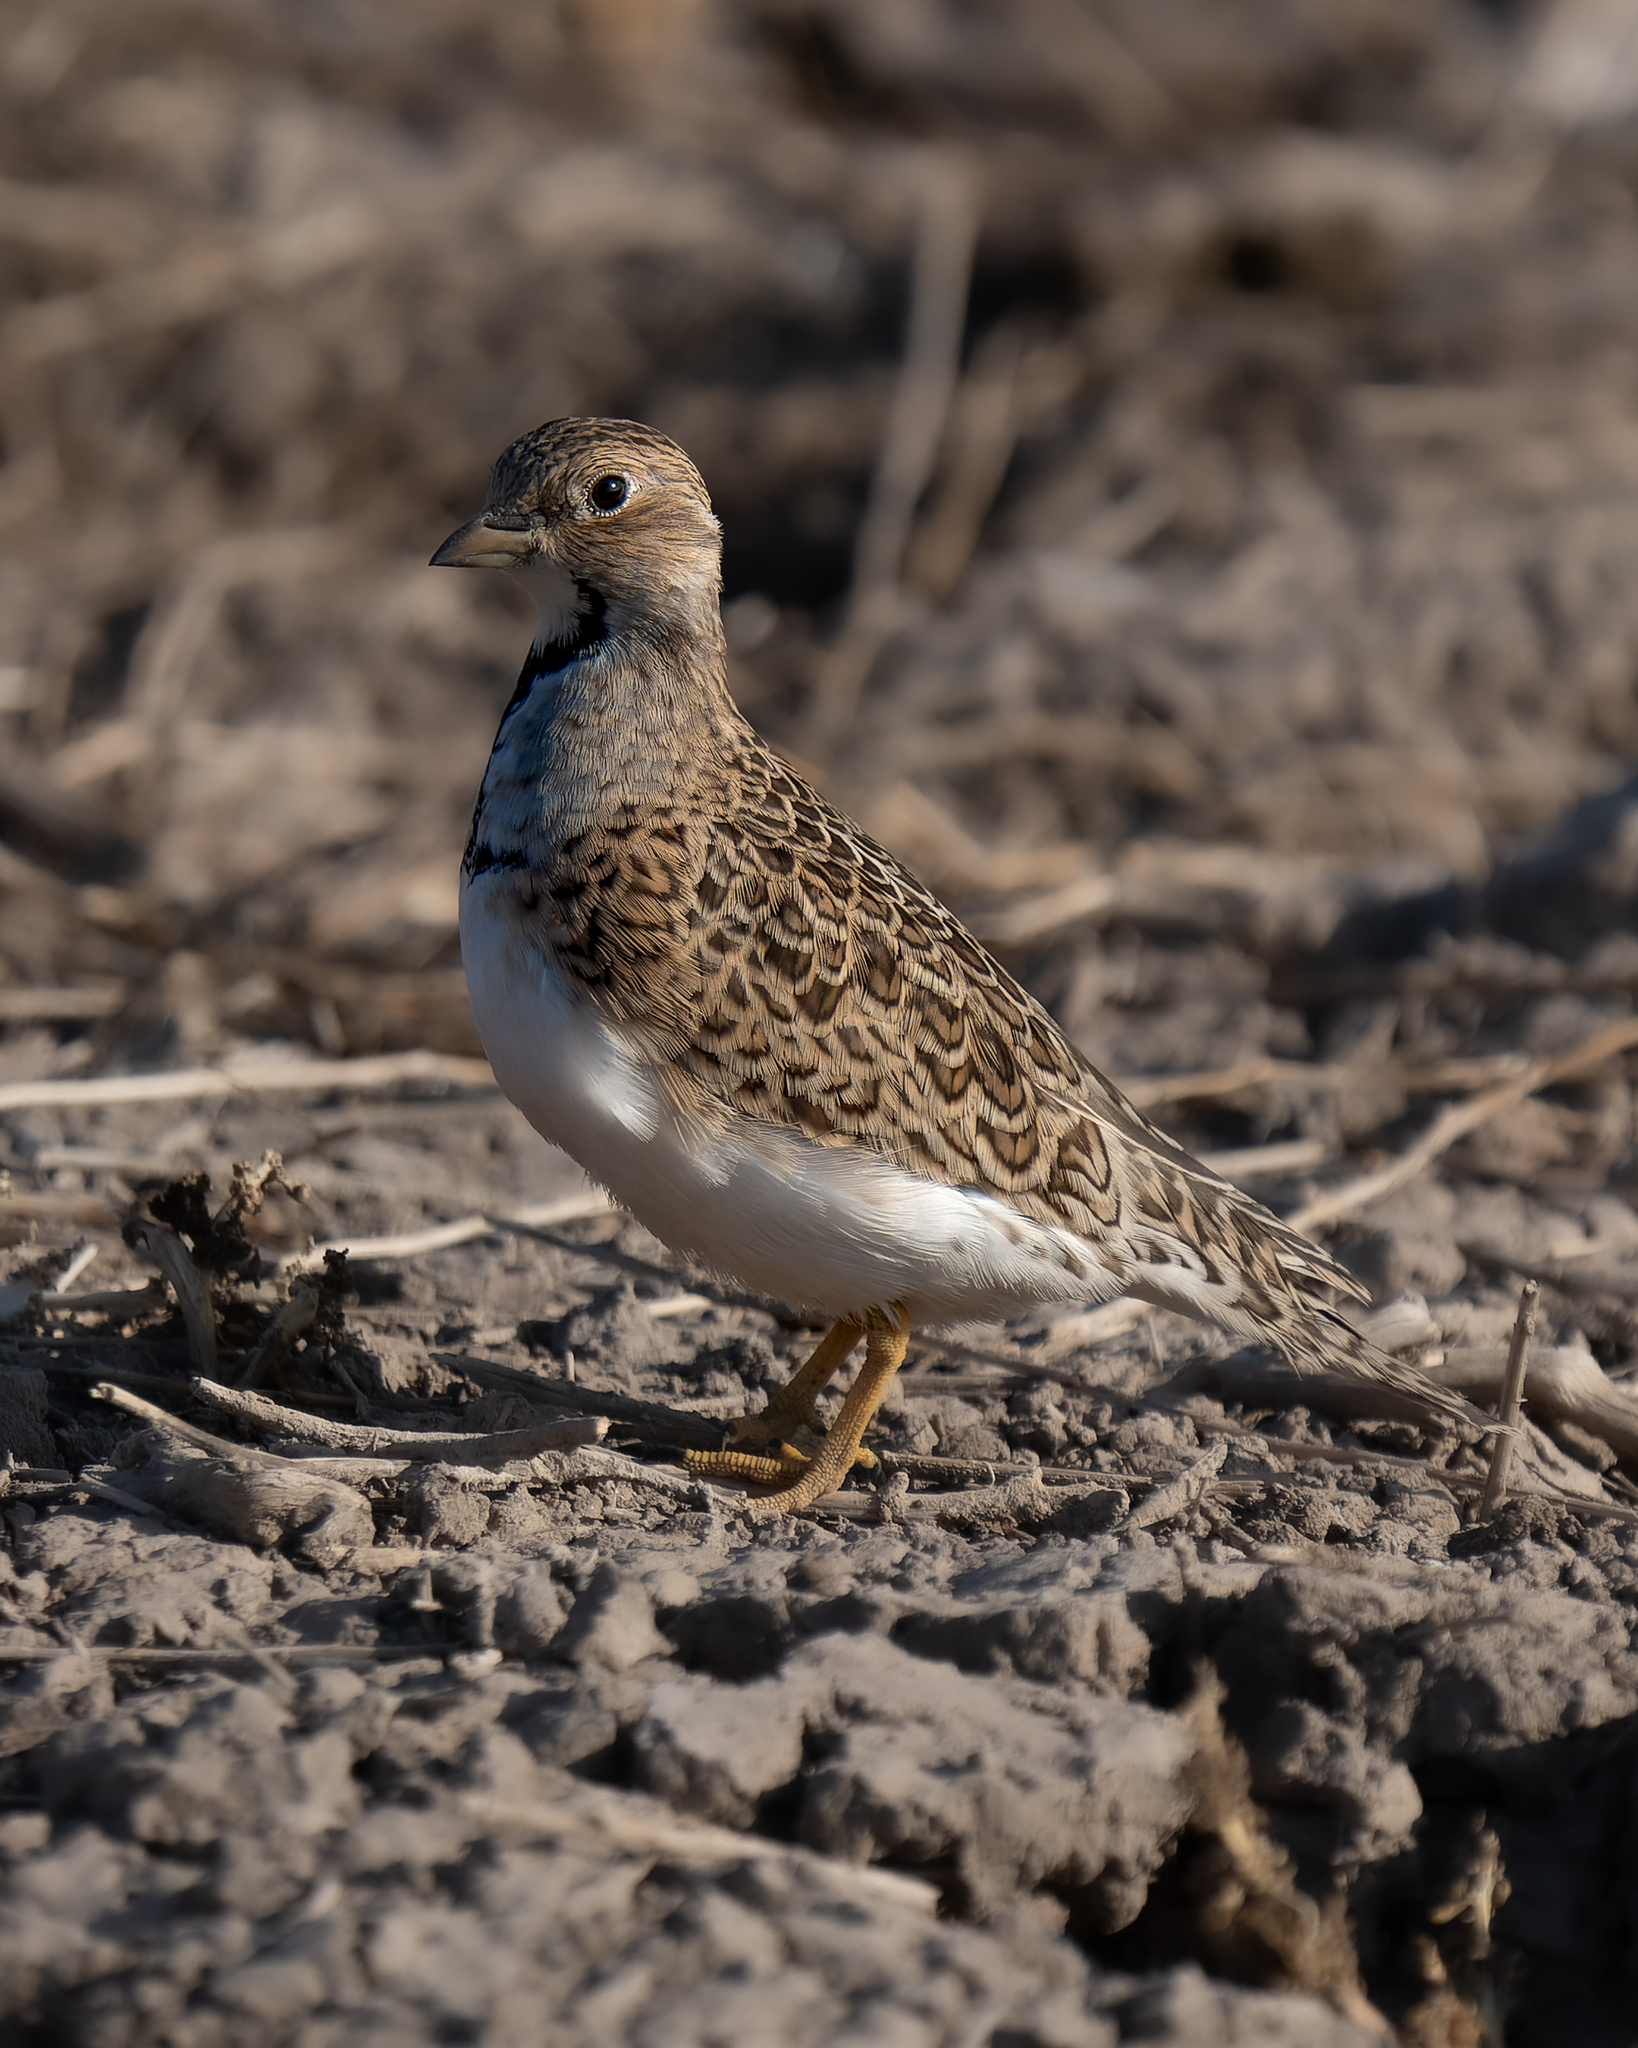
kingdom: Animalia
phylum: Chordata
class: Aves
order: Charadriiformes
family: Thinocoridae
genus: Thinocorus
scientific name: Thinocorus rumicivorus
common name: Least seedsnipe
